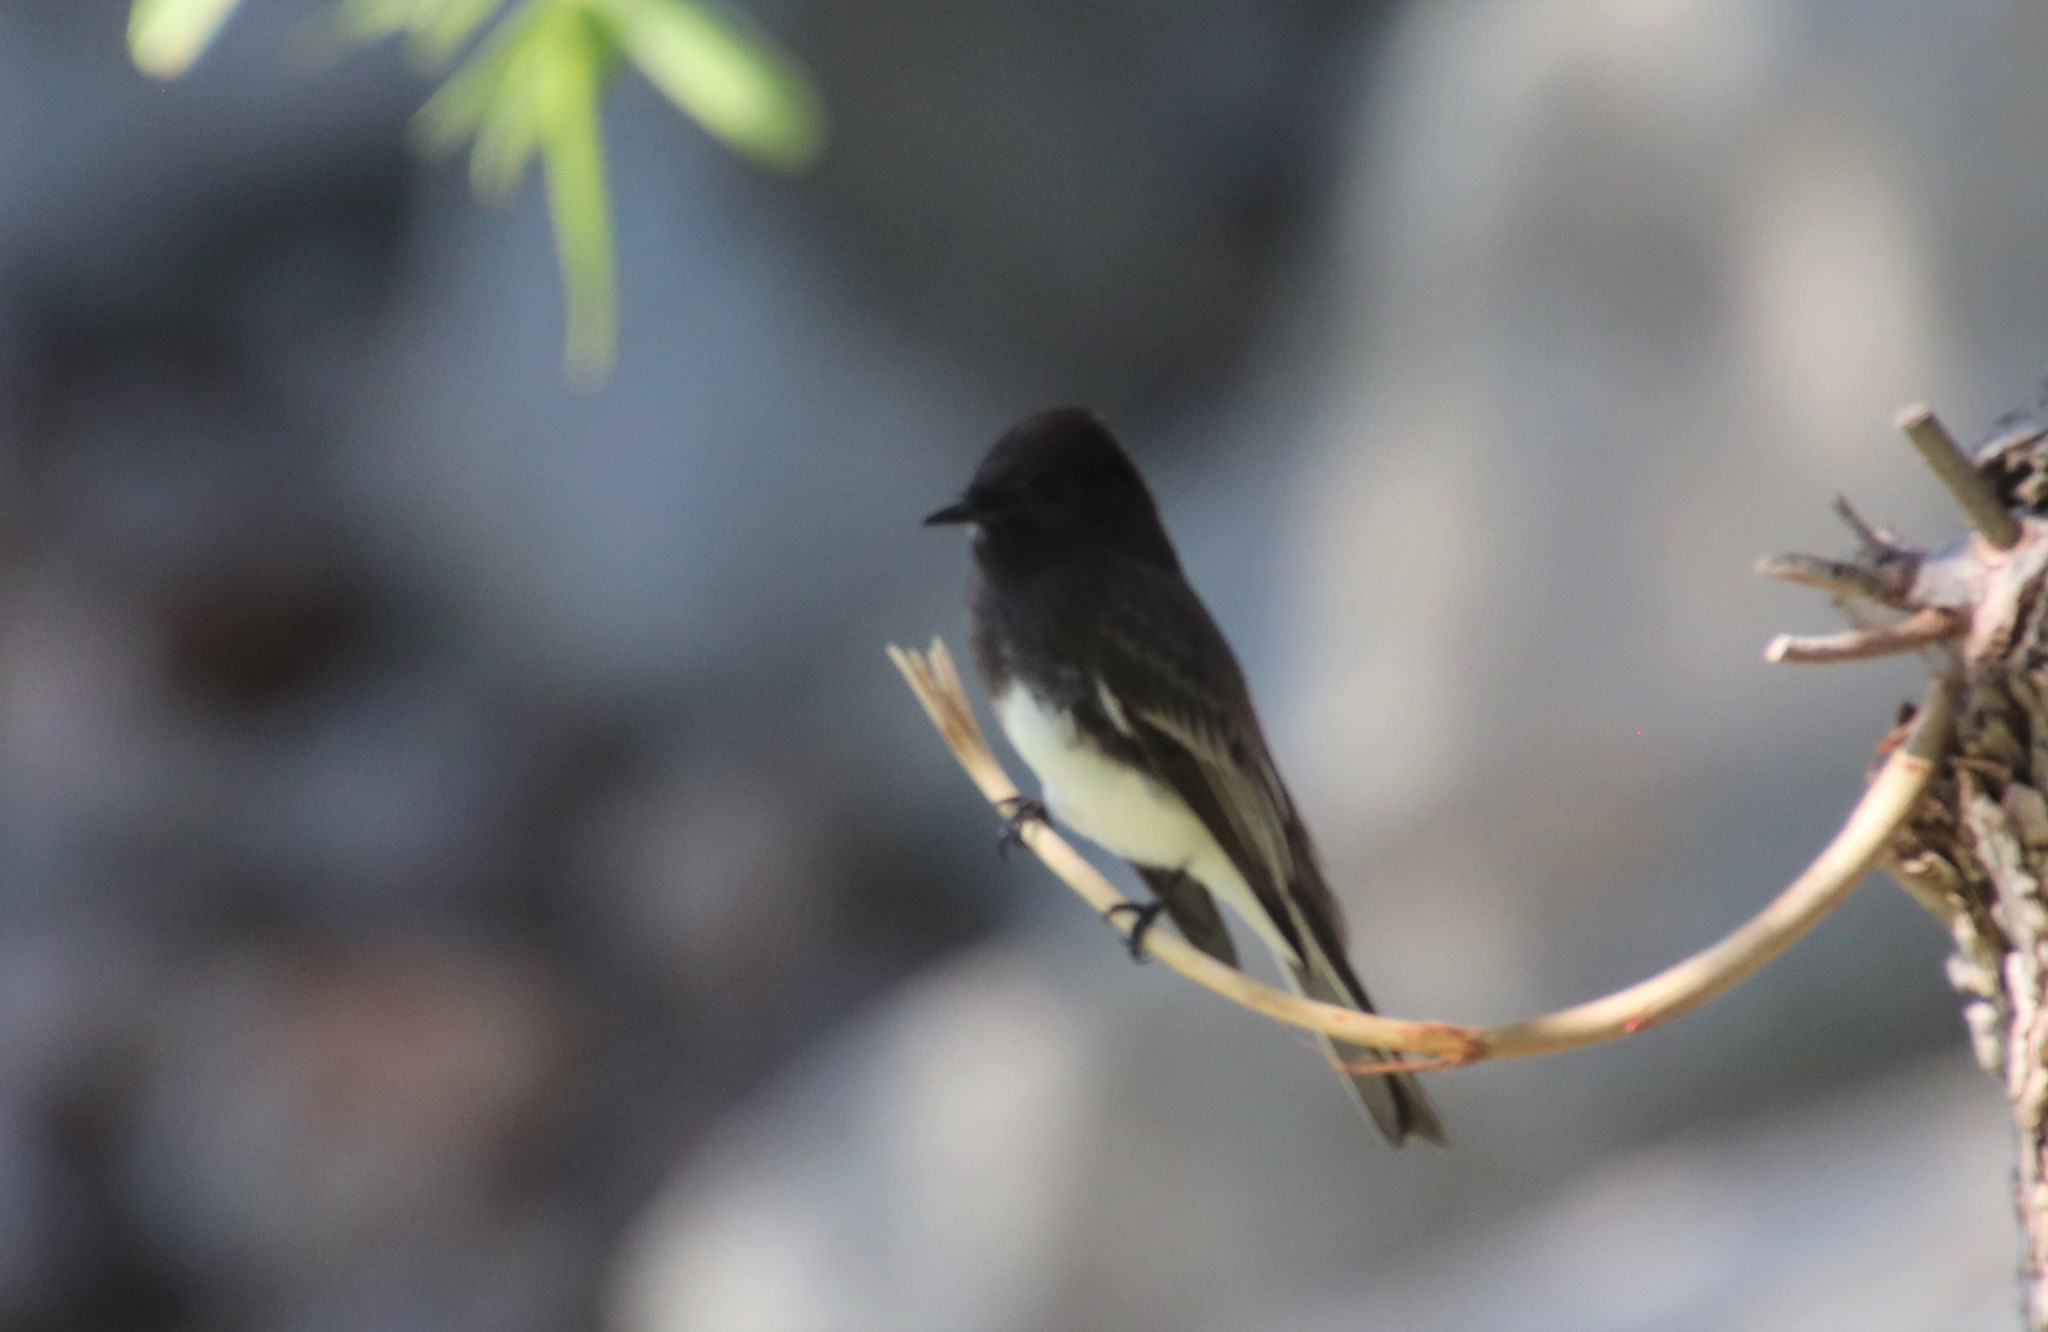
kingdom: Animalia
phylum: Chordata
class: Aves
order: Passeriformes
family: Tyrannidae
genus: Sayornis
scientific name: Sayornis nigricans
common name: Black phoebe
